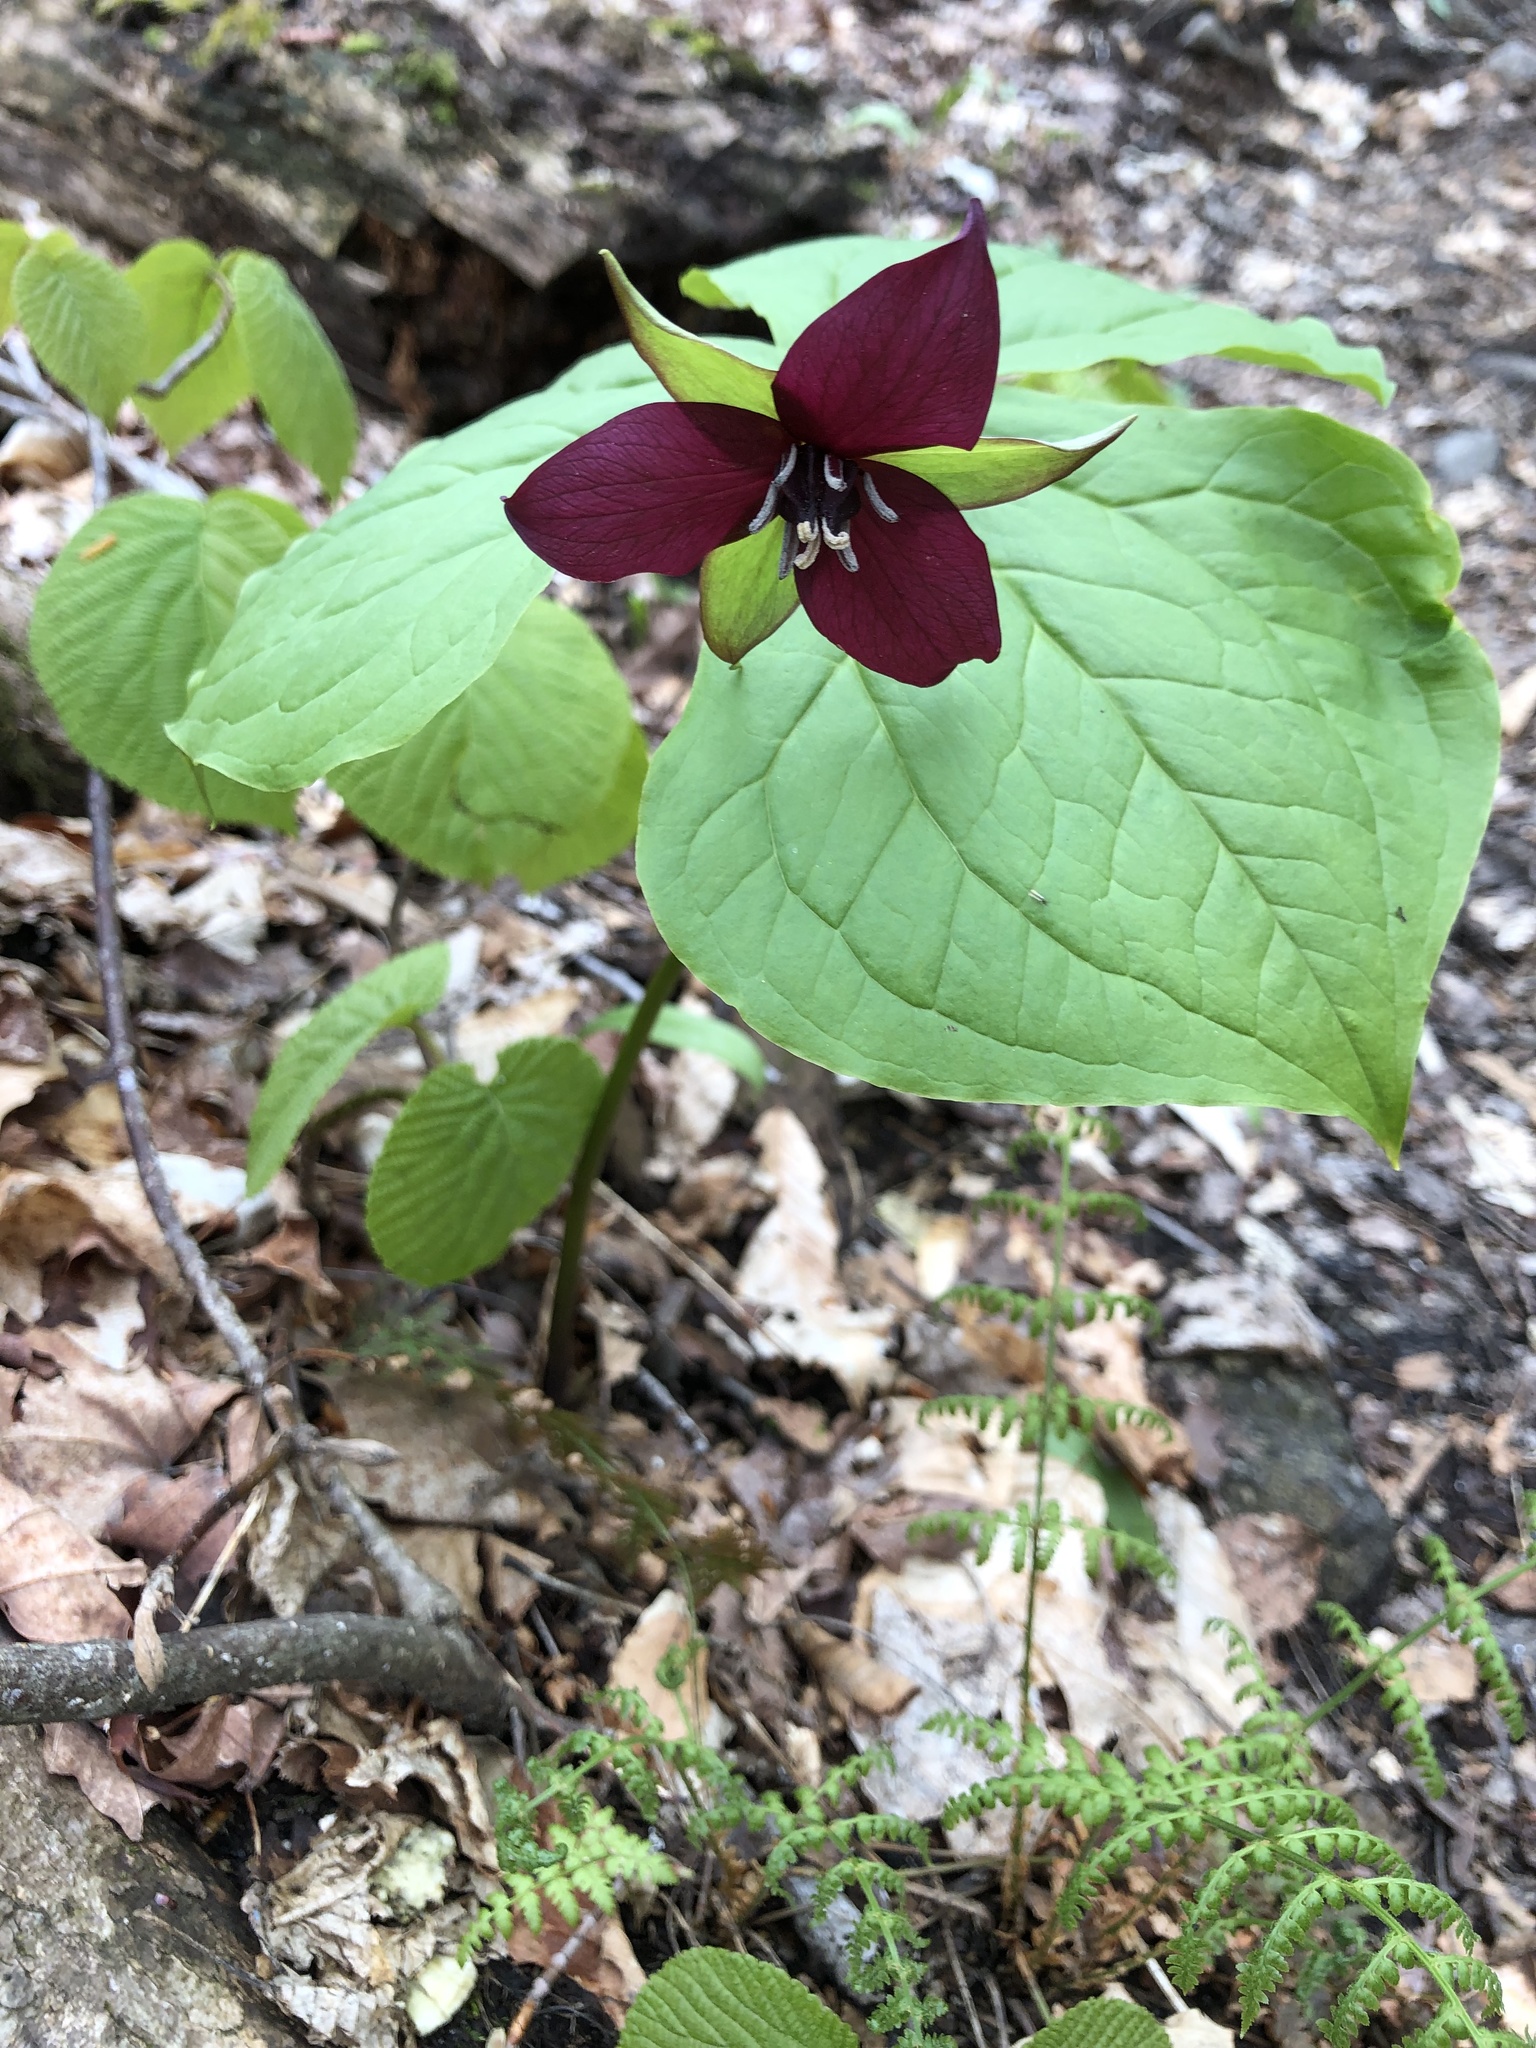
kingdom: Plantae
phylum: Tracheophyta
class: Liliopsida
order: Liliales
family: Melanthiaceae
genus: Trillium
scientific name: Trillium erectum
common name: Purple trillium
